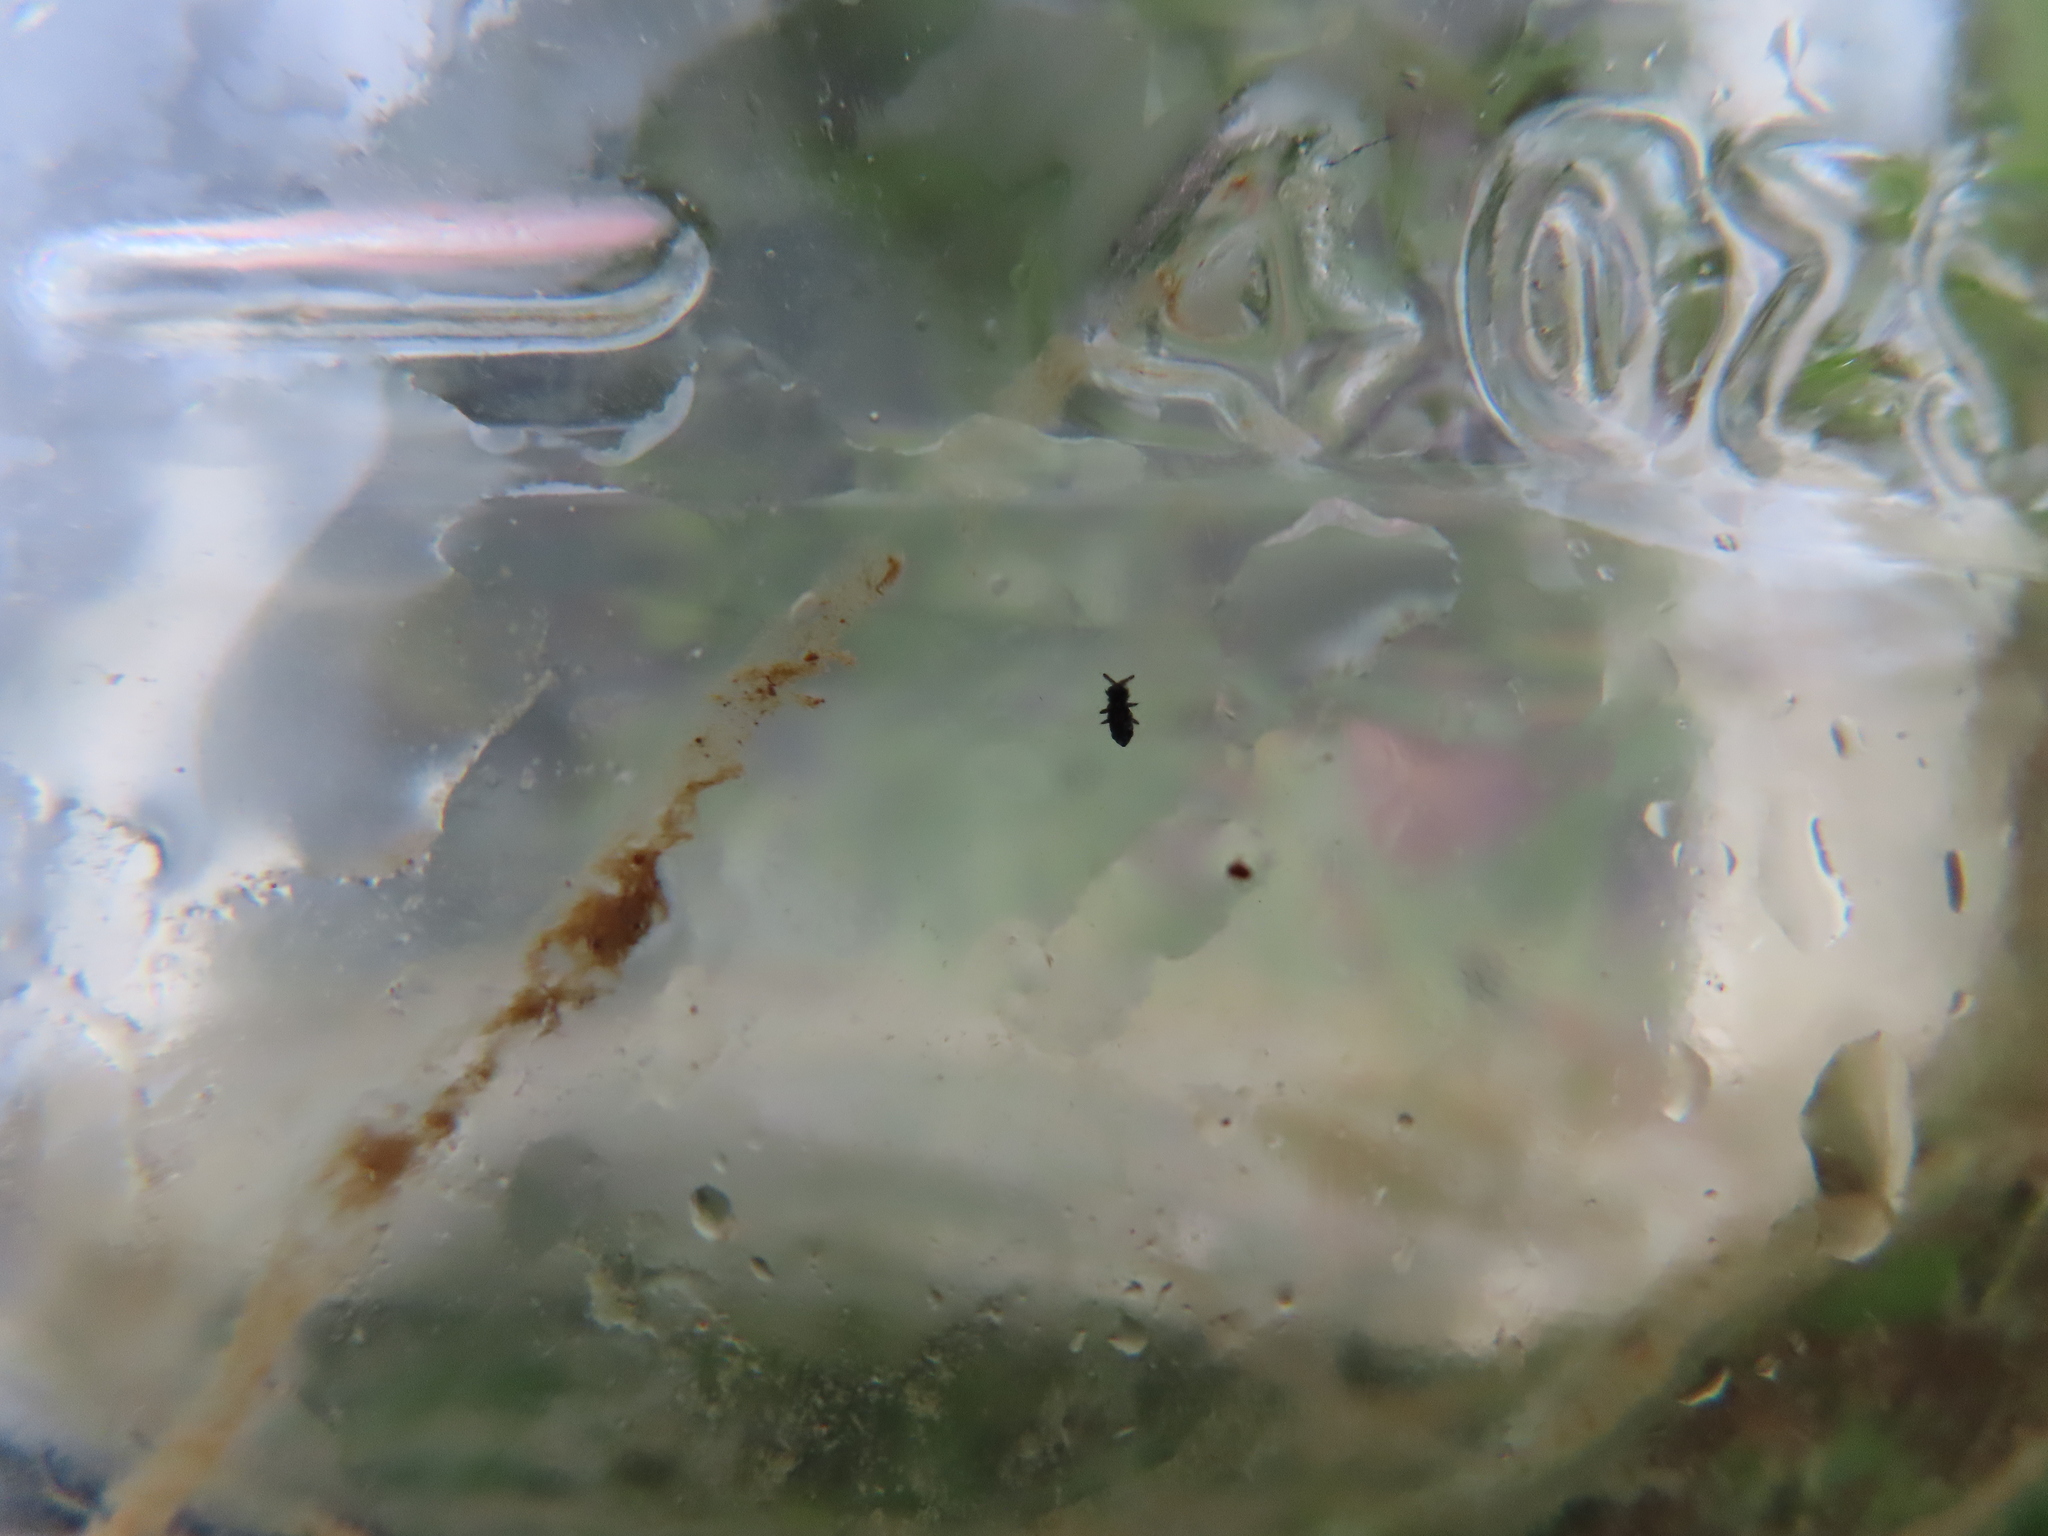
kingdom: Animalia
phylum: Arthropoda
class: Collembola
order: Poduromorpha
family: Poduridae
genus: Podura
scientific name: Podura aquatica
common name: Water springtail
